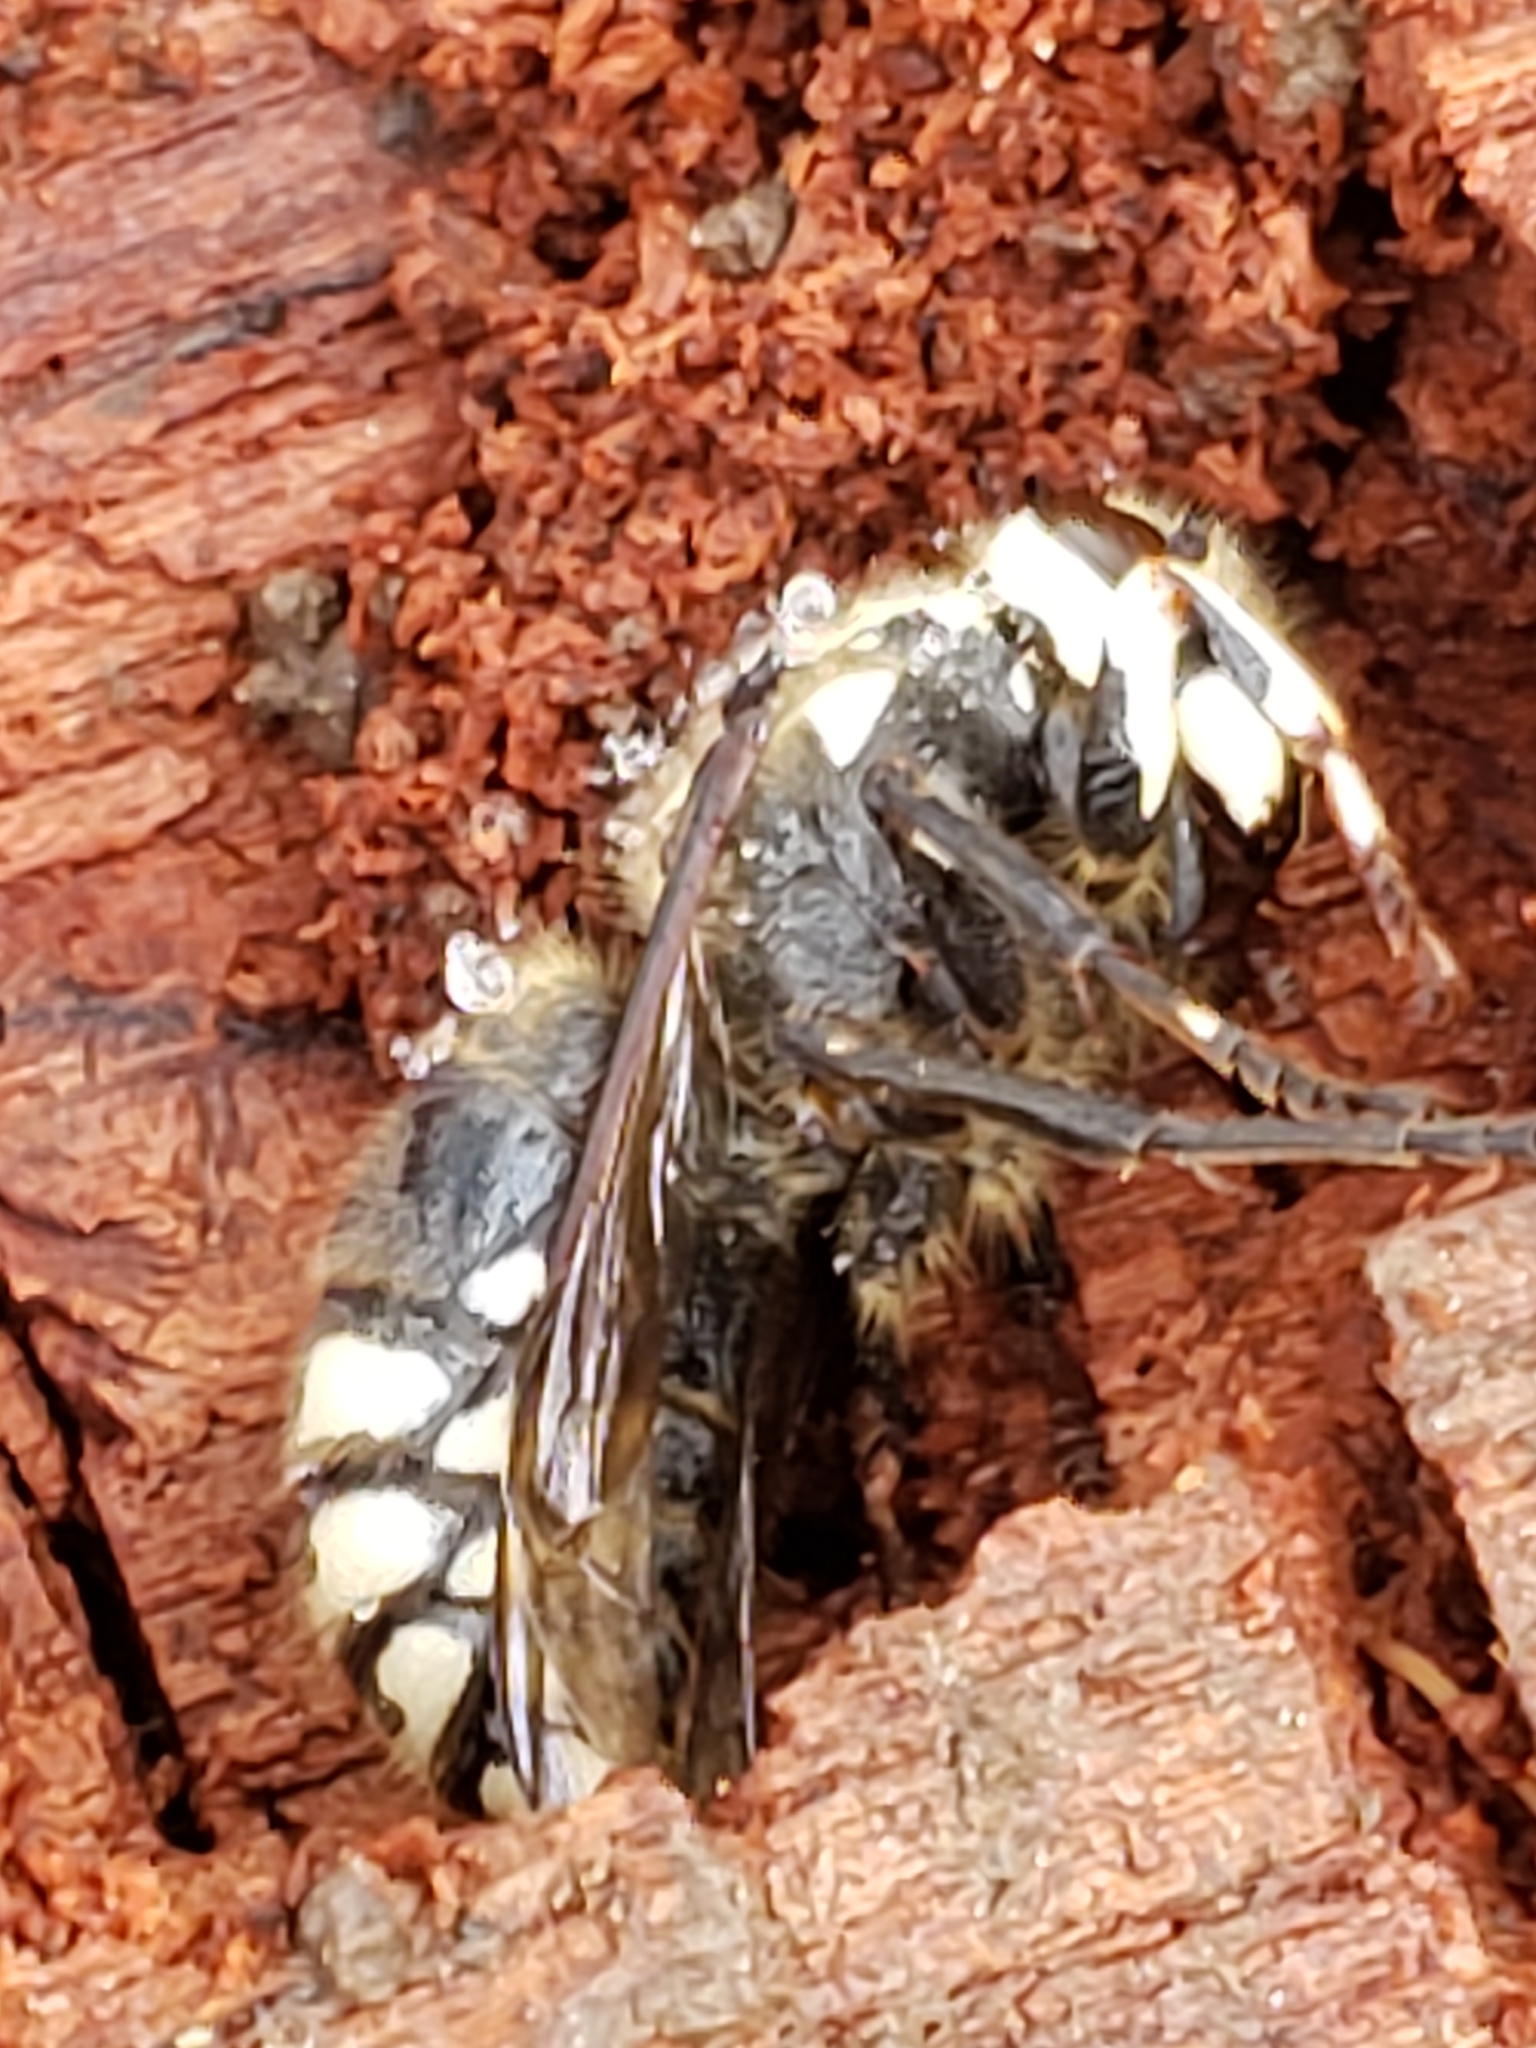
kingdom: Animalia
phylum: Arthropoda
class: Insecta
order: Hymenoptera
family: Vespidae
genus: Dolichovespula
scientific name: Dolichovespula maculata
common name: Bald-faced hornet
